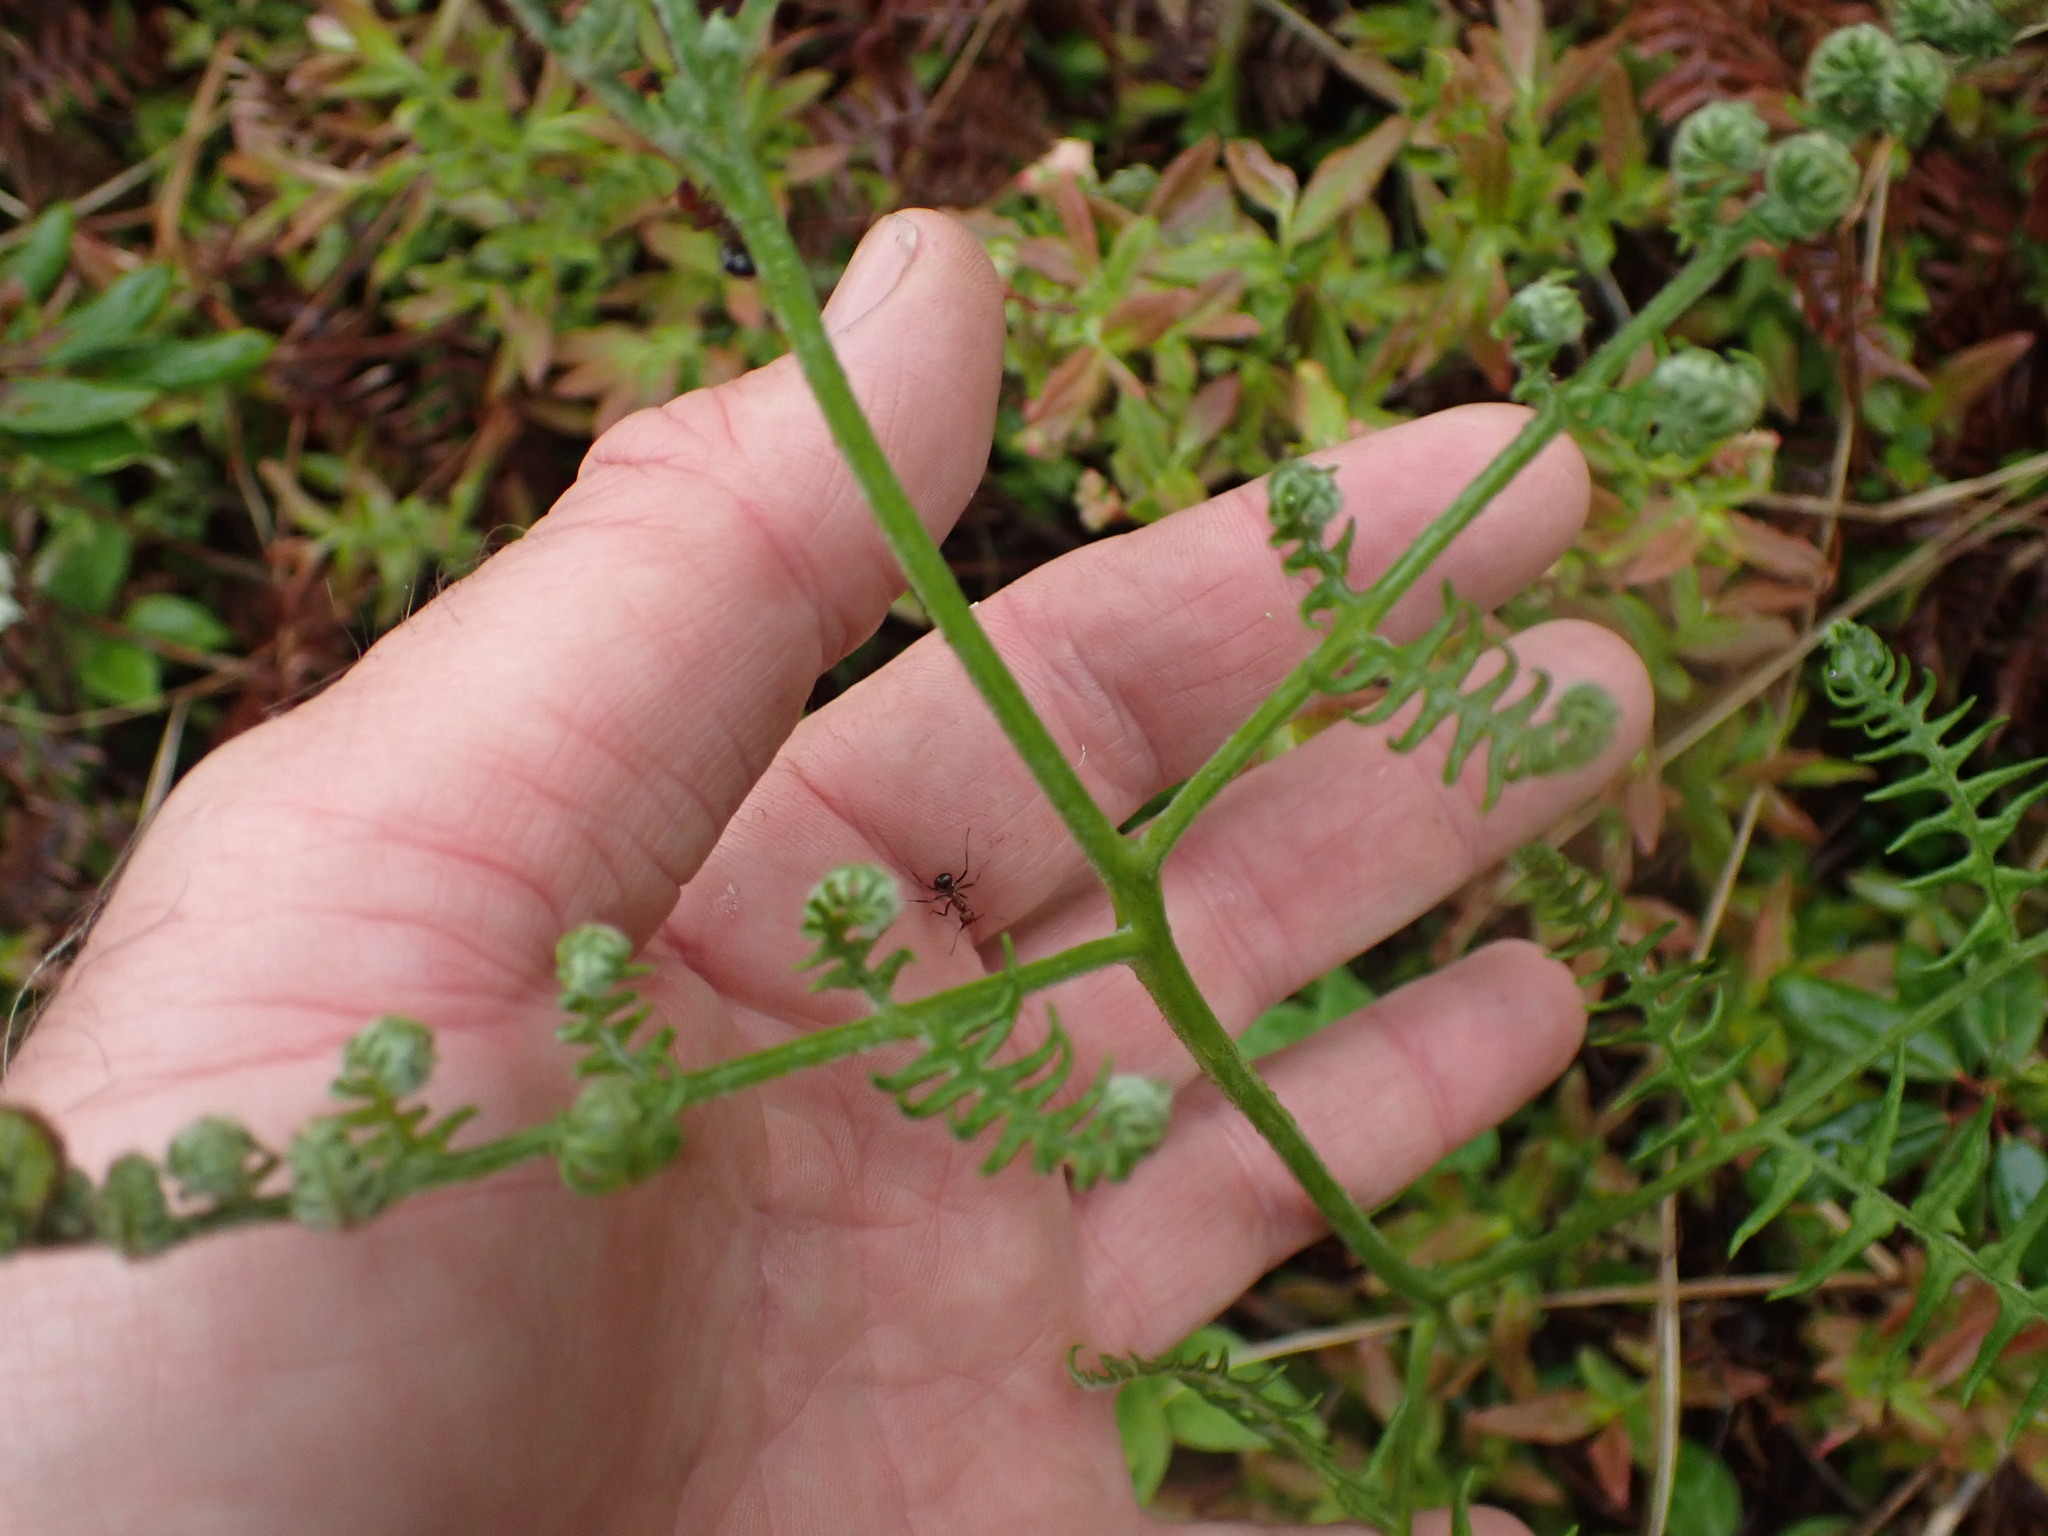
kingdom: Plantae
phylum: Tracheophyta
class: Polypodiopsida
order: Polypodiales
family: Dennstaedtiaceae
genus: Pteridium
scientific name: Pteridium aquilinum
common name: Bracken
